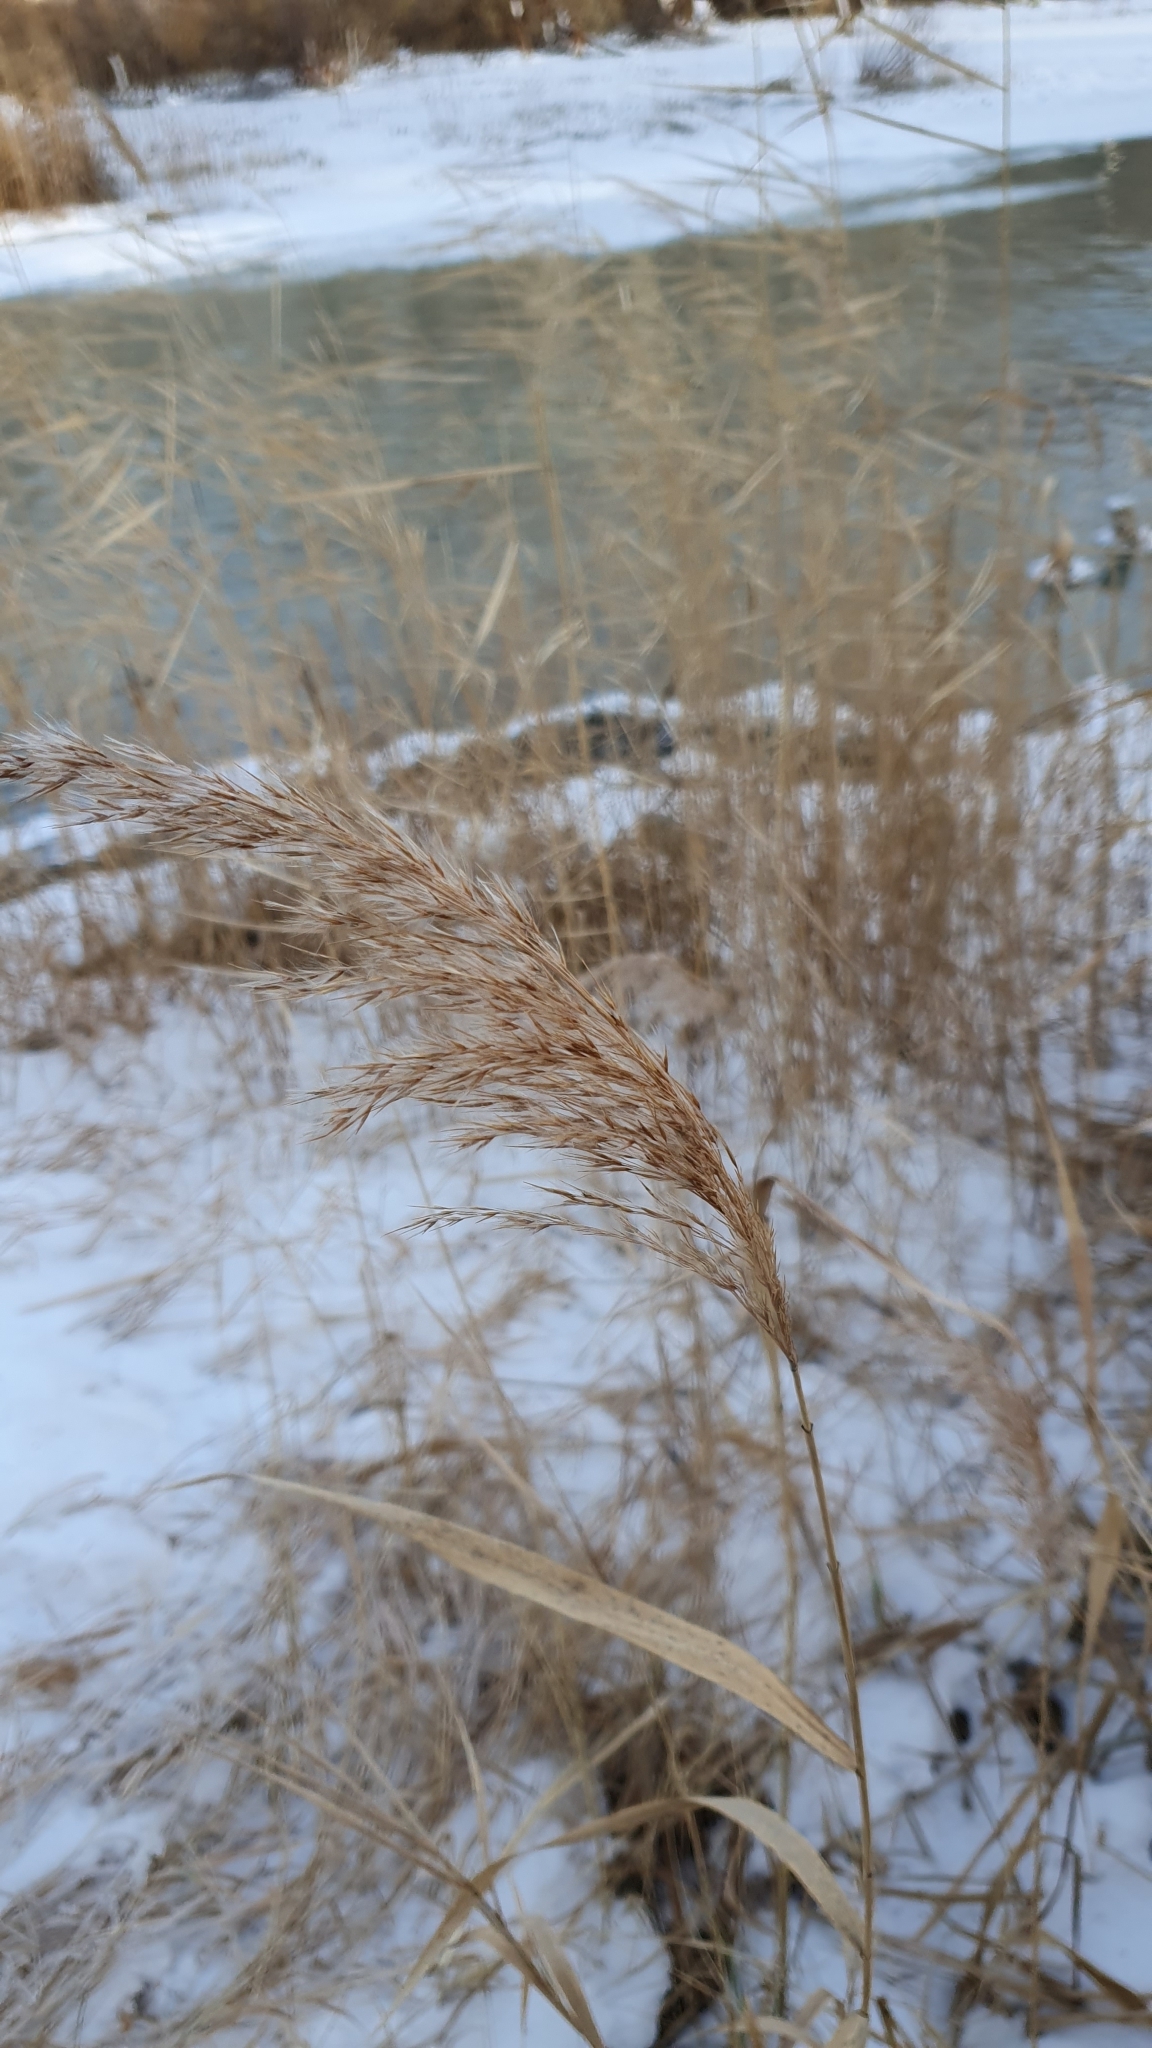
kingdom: Plantae
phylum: Tracheophyta
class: Liliopsida
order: Poales
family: Poaceae
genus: Phragmites
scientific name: Phragmites australis
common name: Common reed
